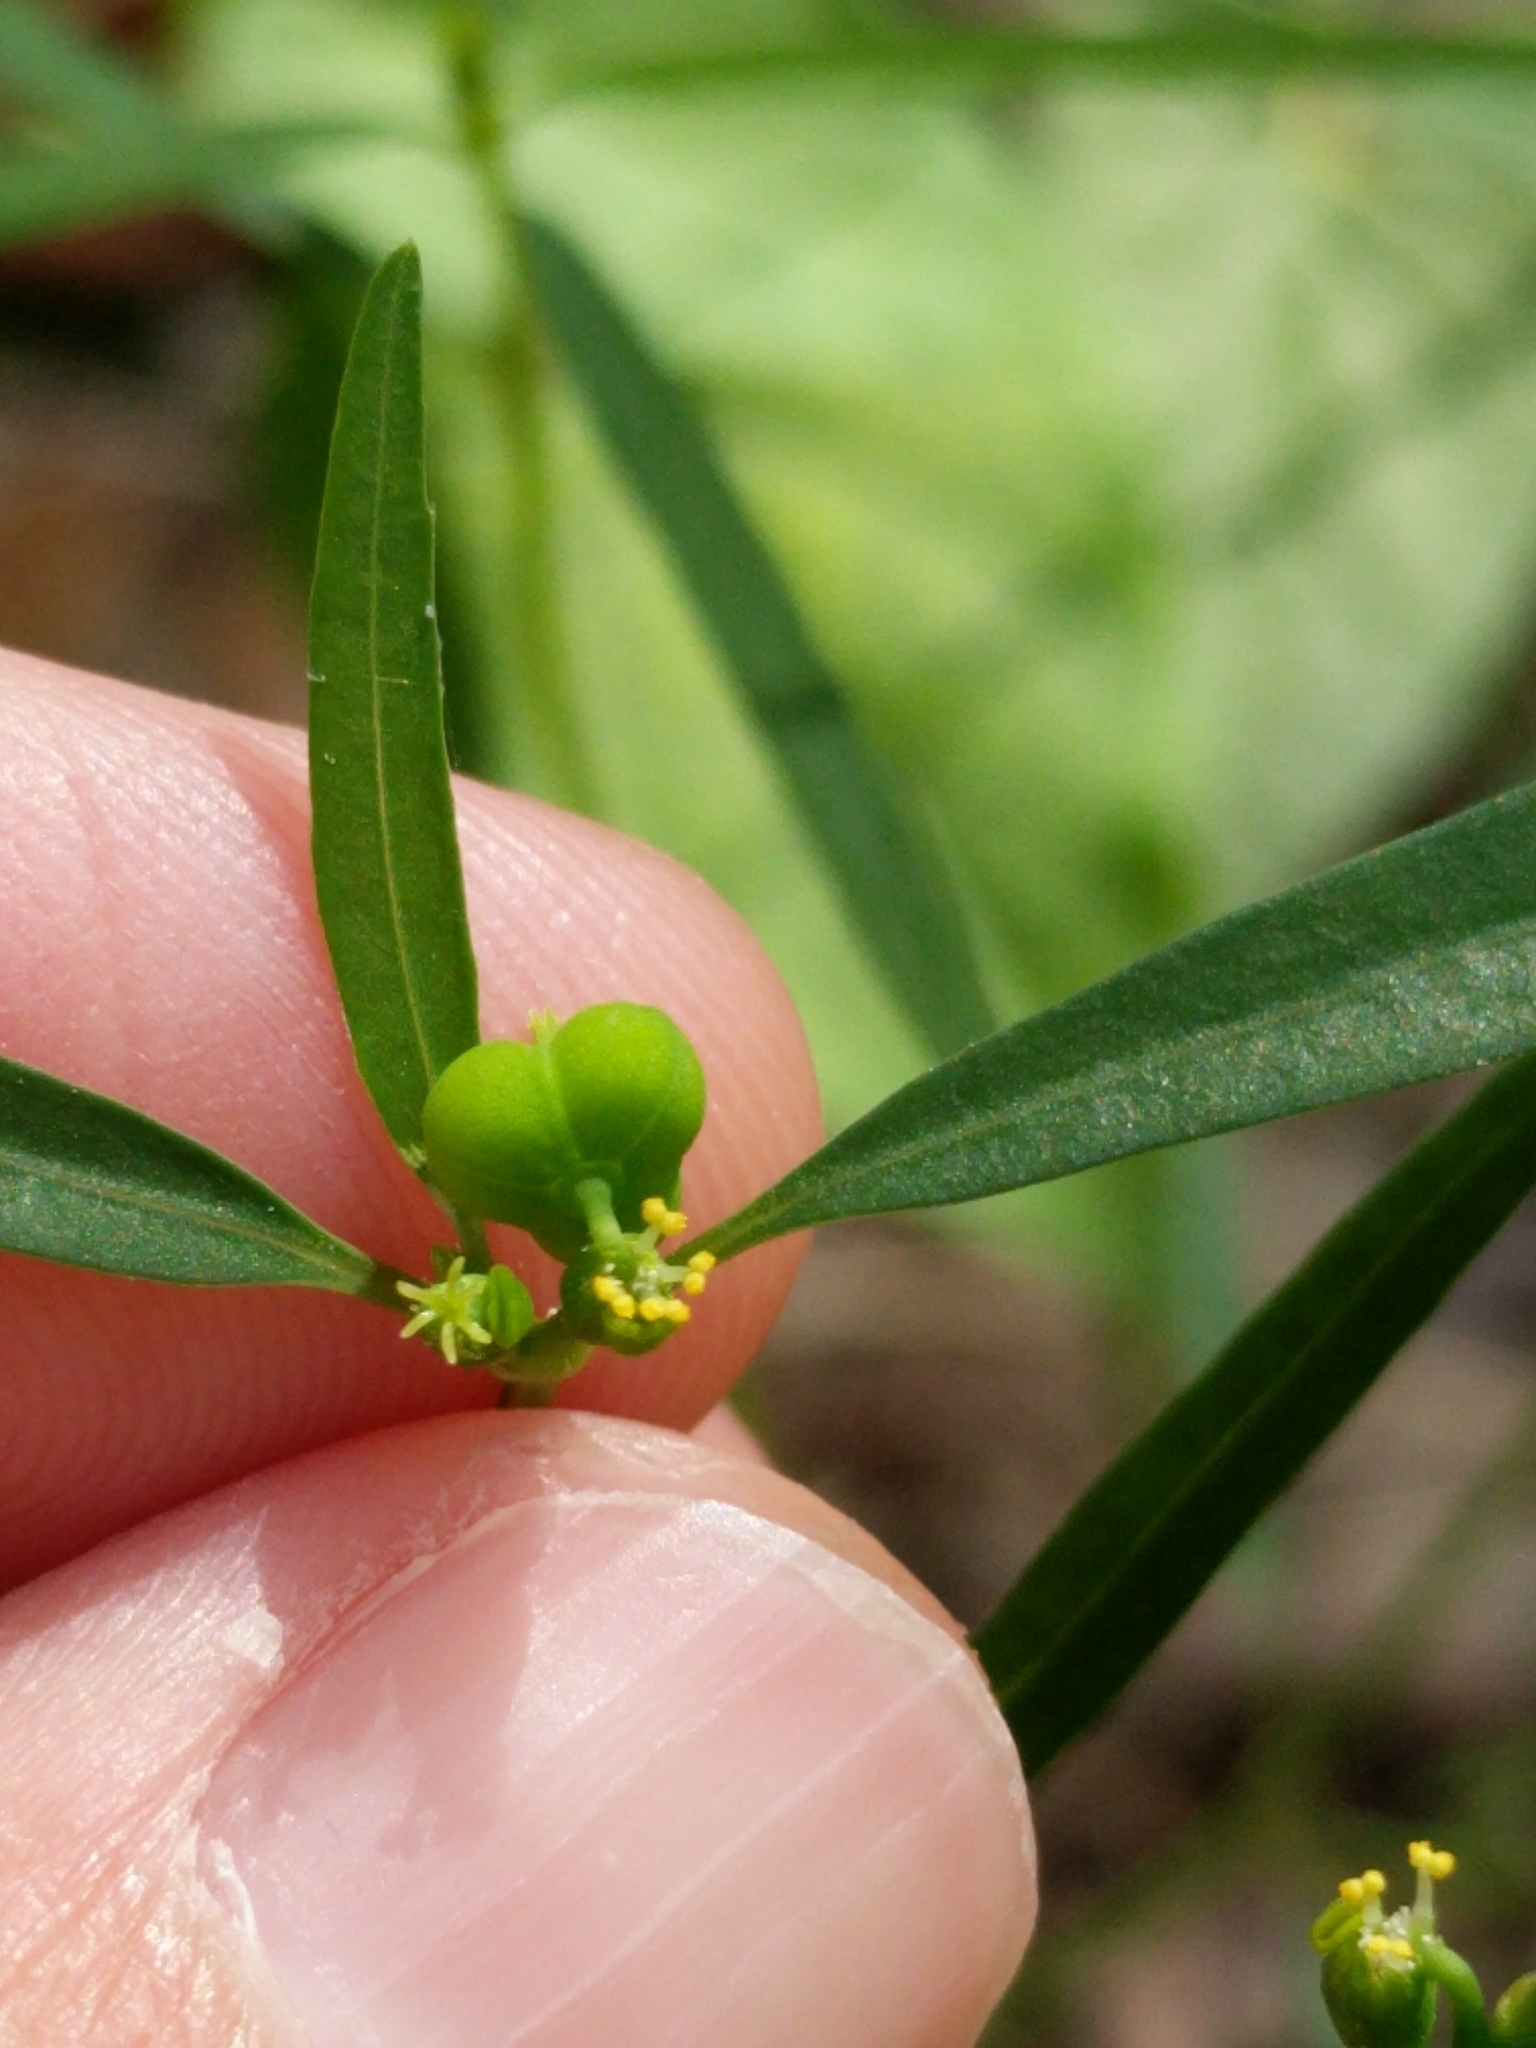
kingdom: Plantae
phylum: Tracheophyta
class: Magnoliopsida
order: Malpighiales
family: Euphorbiaceae
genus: Euphorbia
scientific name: Euphorbia heterophylla
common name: Mexican fireplant
